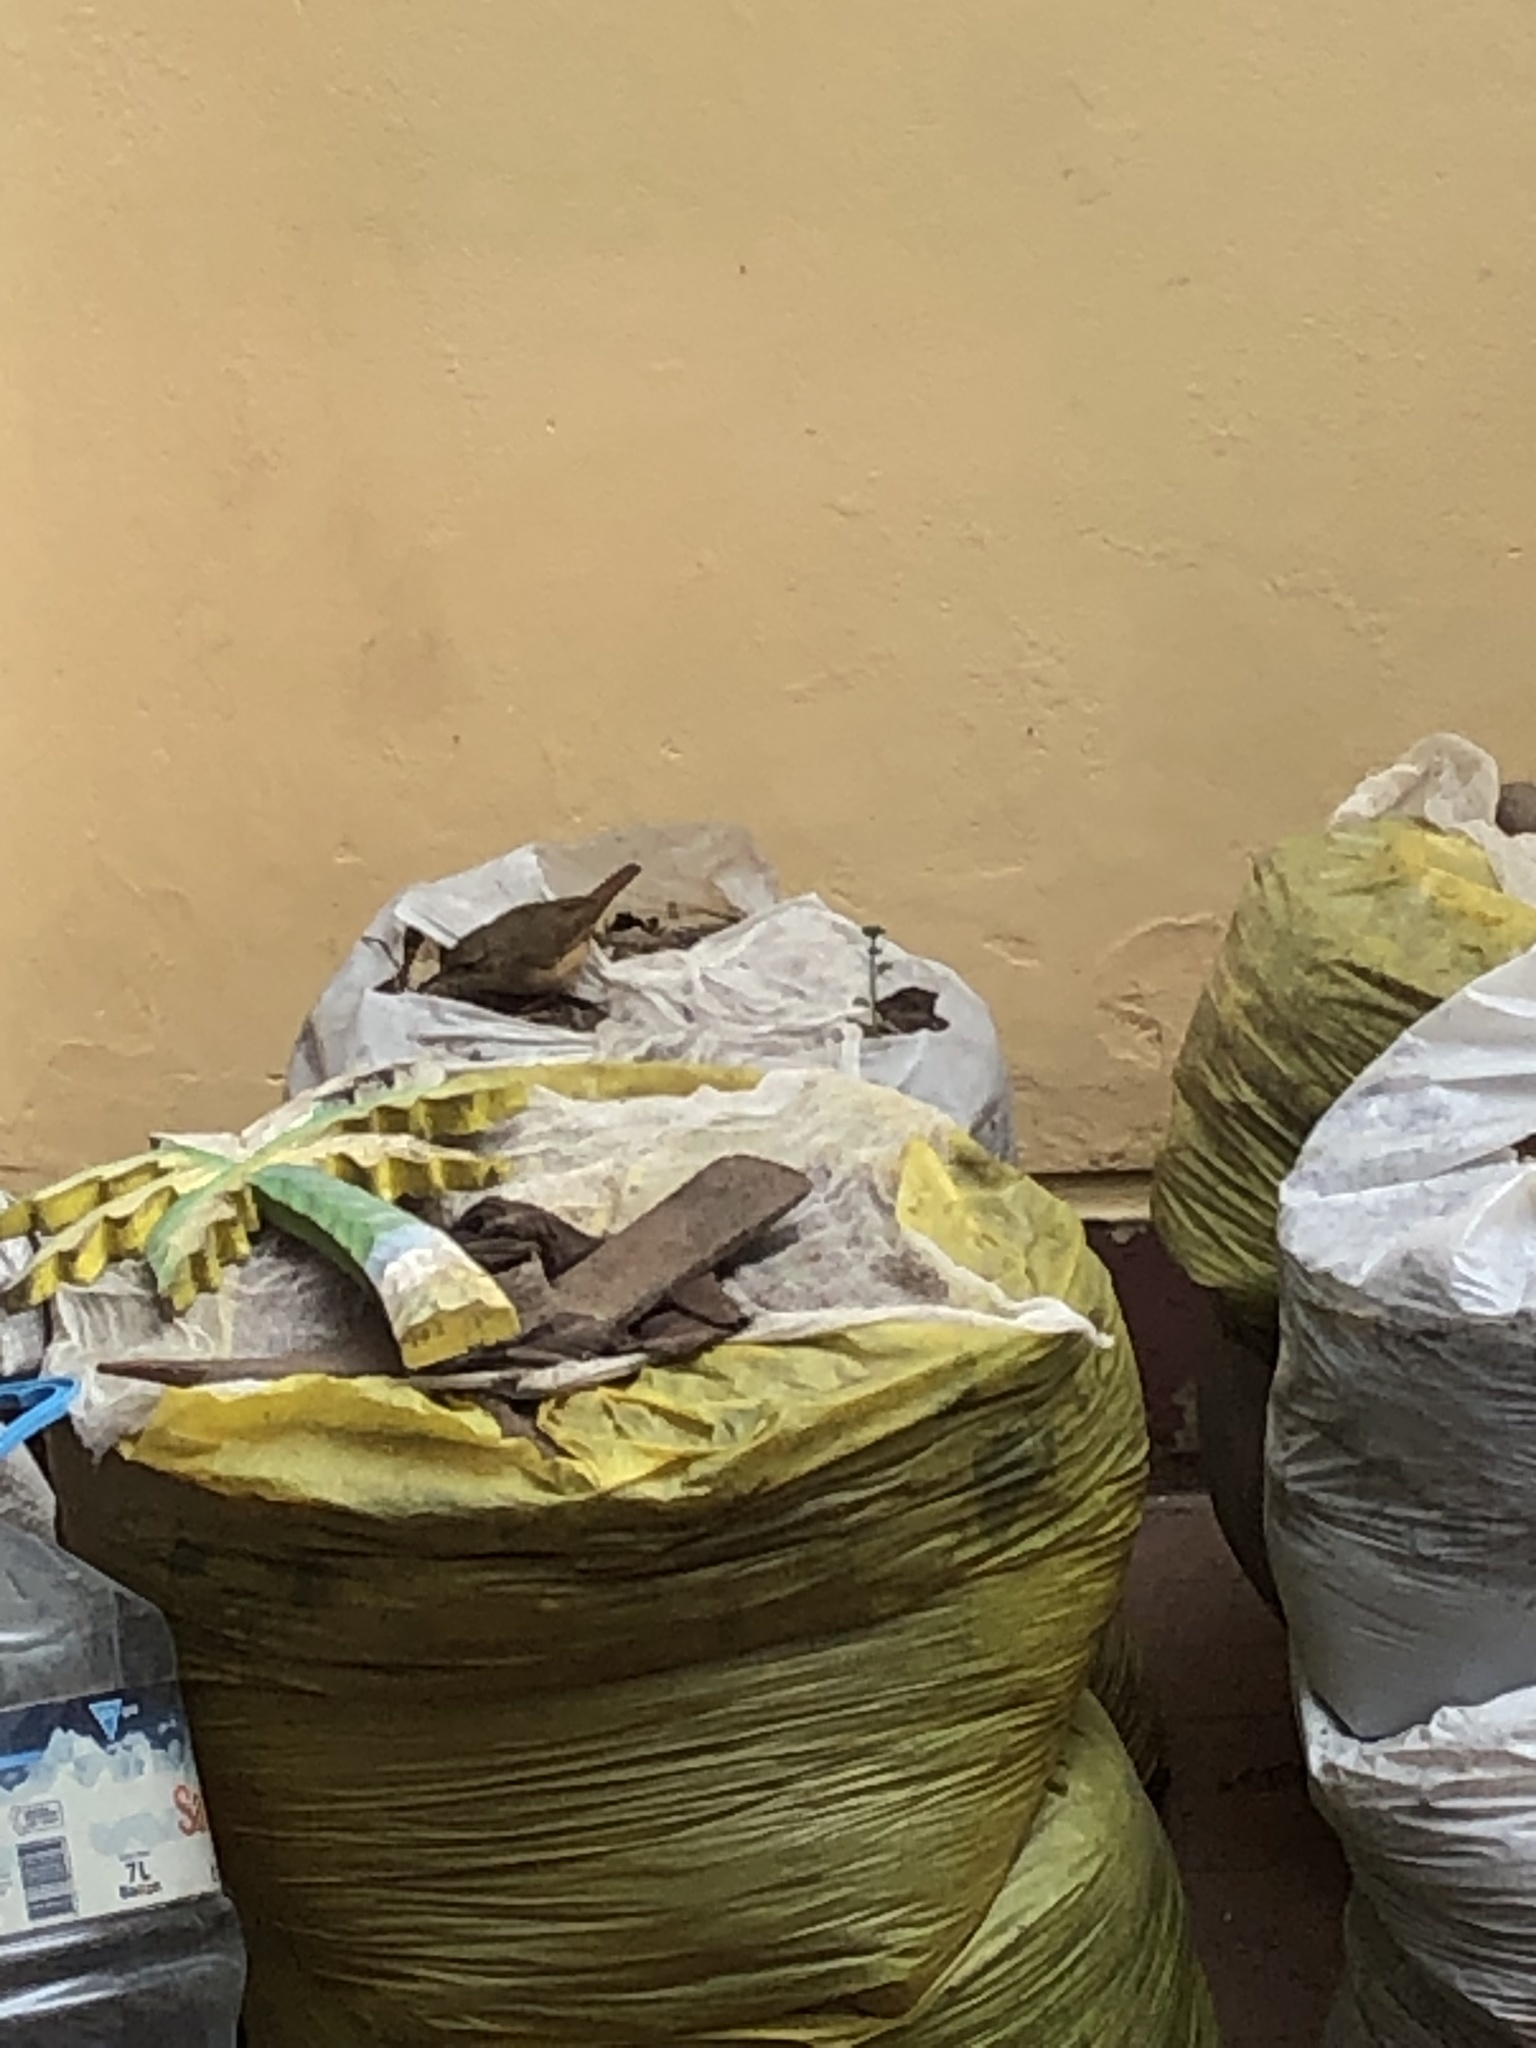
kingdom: Animalia
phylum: Chordata
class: Aves
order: Passeriformes
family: Troglodytidae
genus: Troglodytes
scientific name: Troglodytes aedon
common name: House wren
